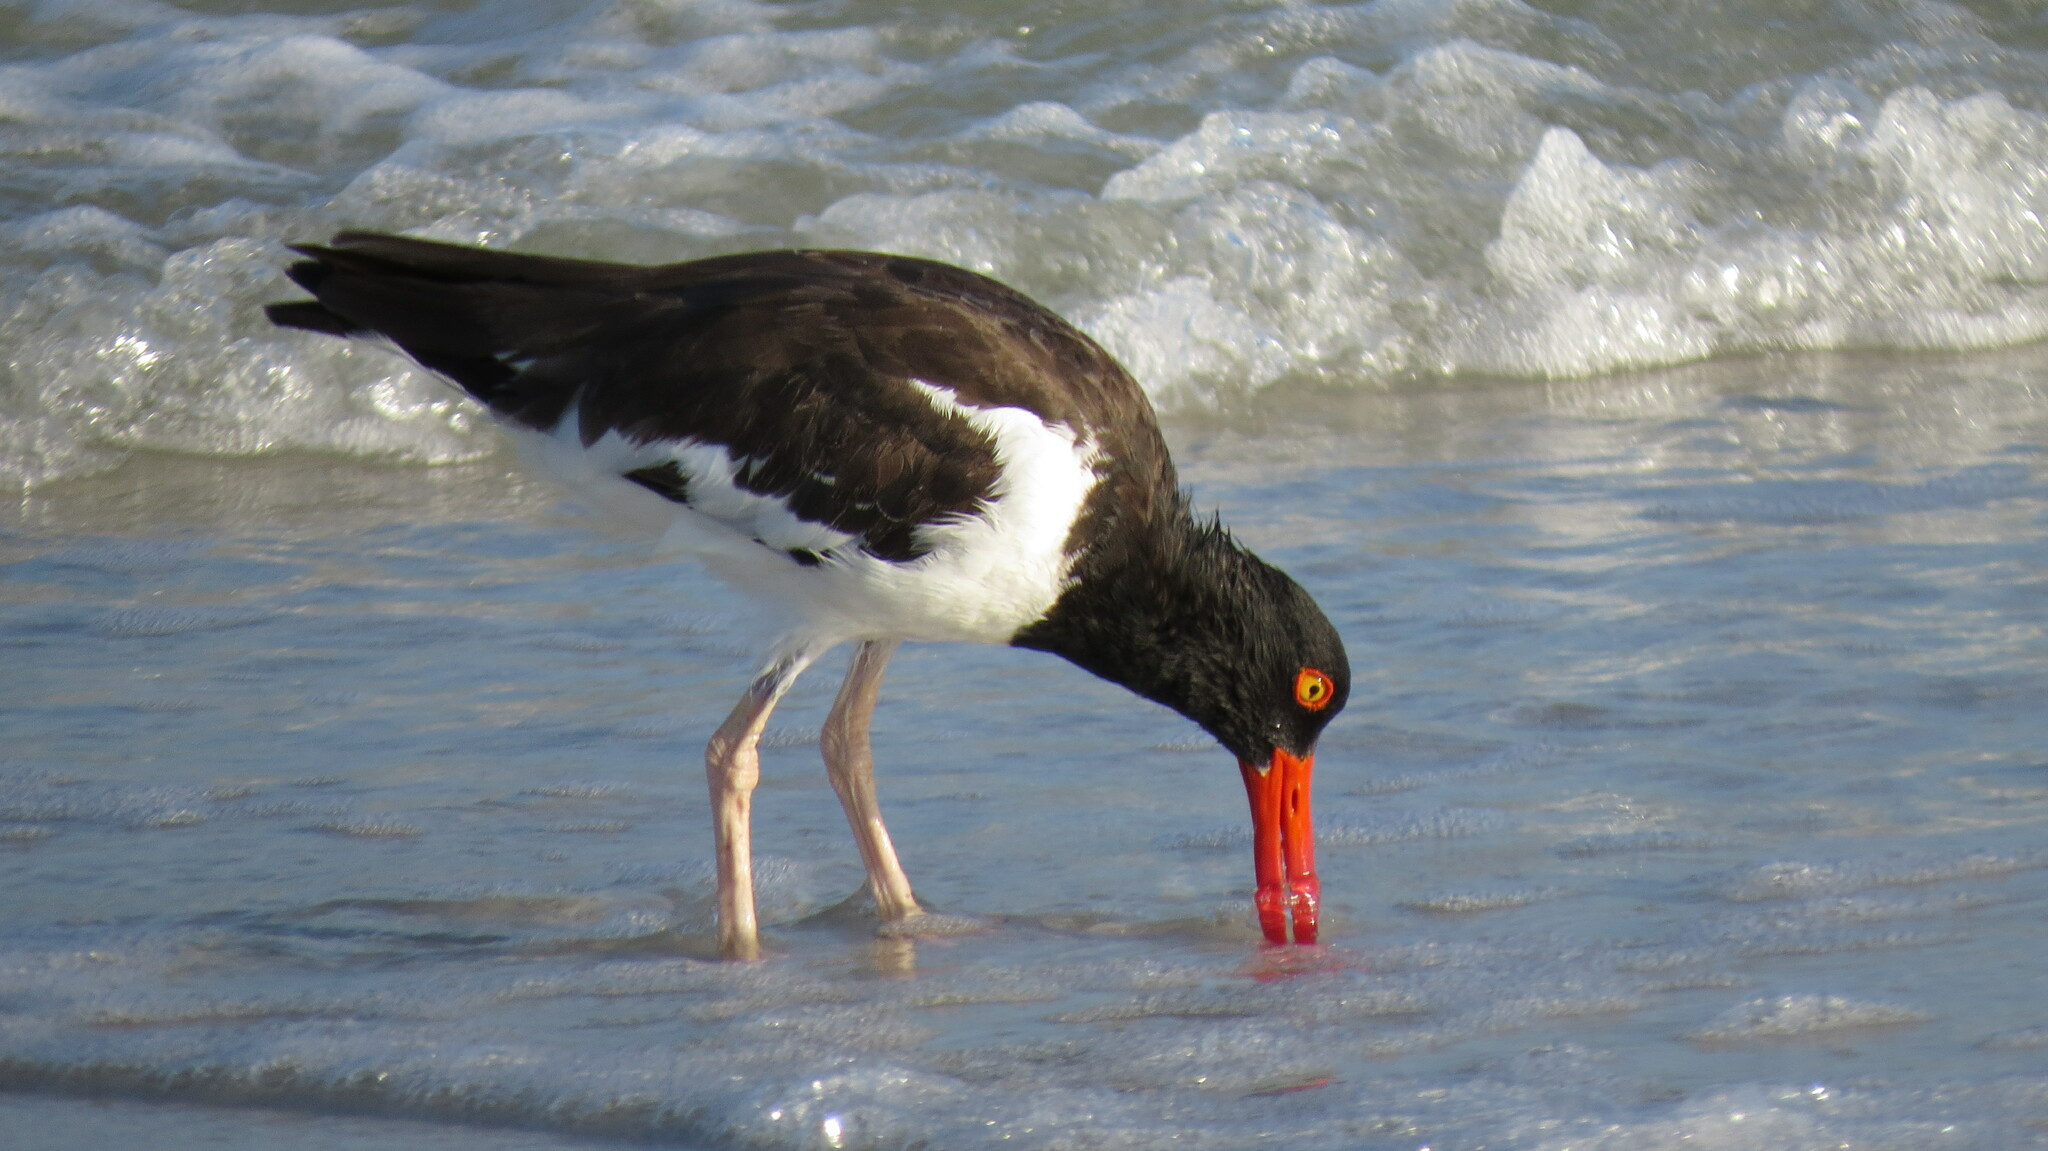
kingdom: Animalia
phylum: Chordata
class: Aves
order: Charadriiformes
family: Haematopodidae
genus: Haematopus
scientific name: Haematopus palliatus
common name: American oystercatcher
